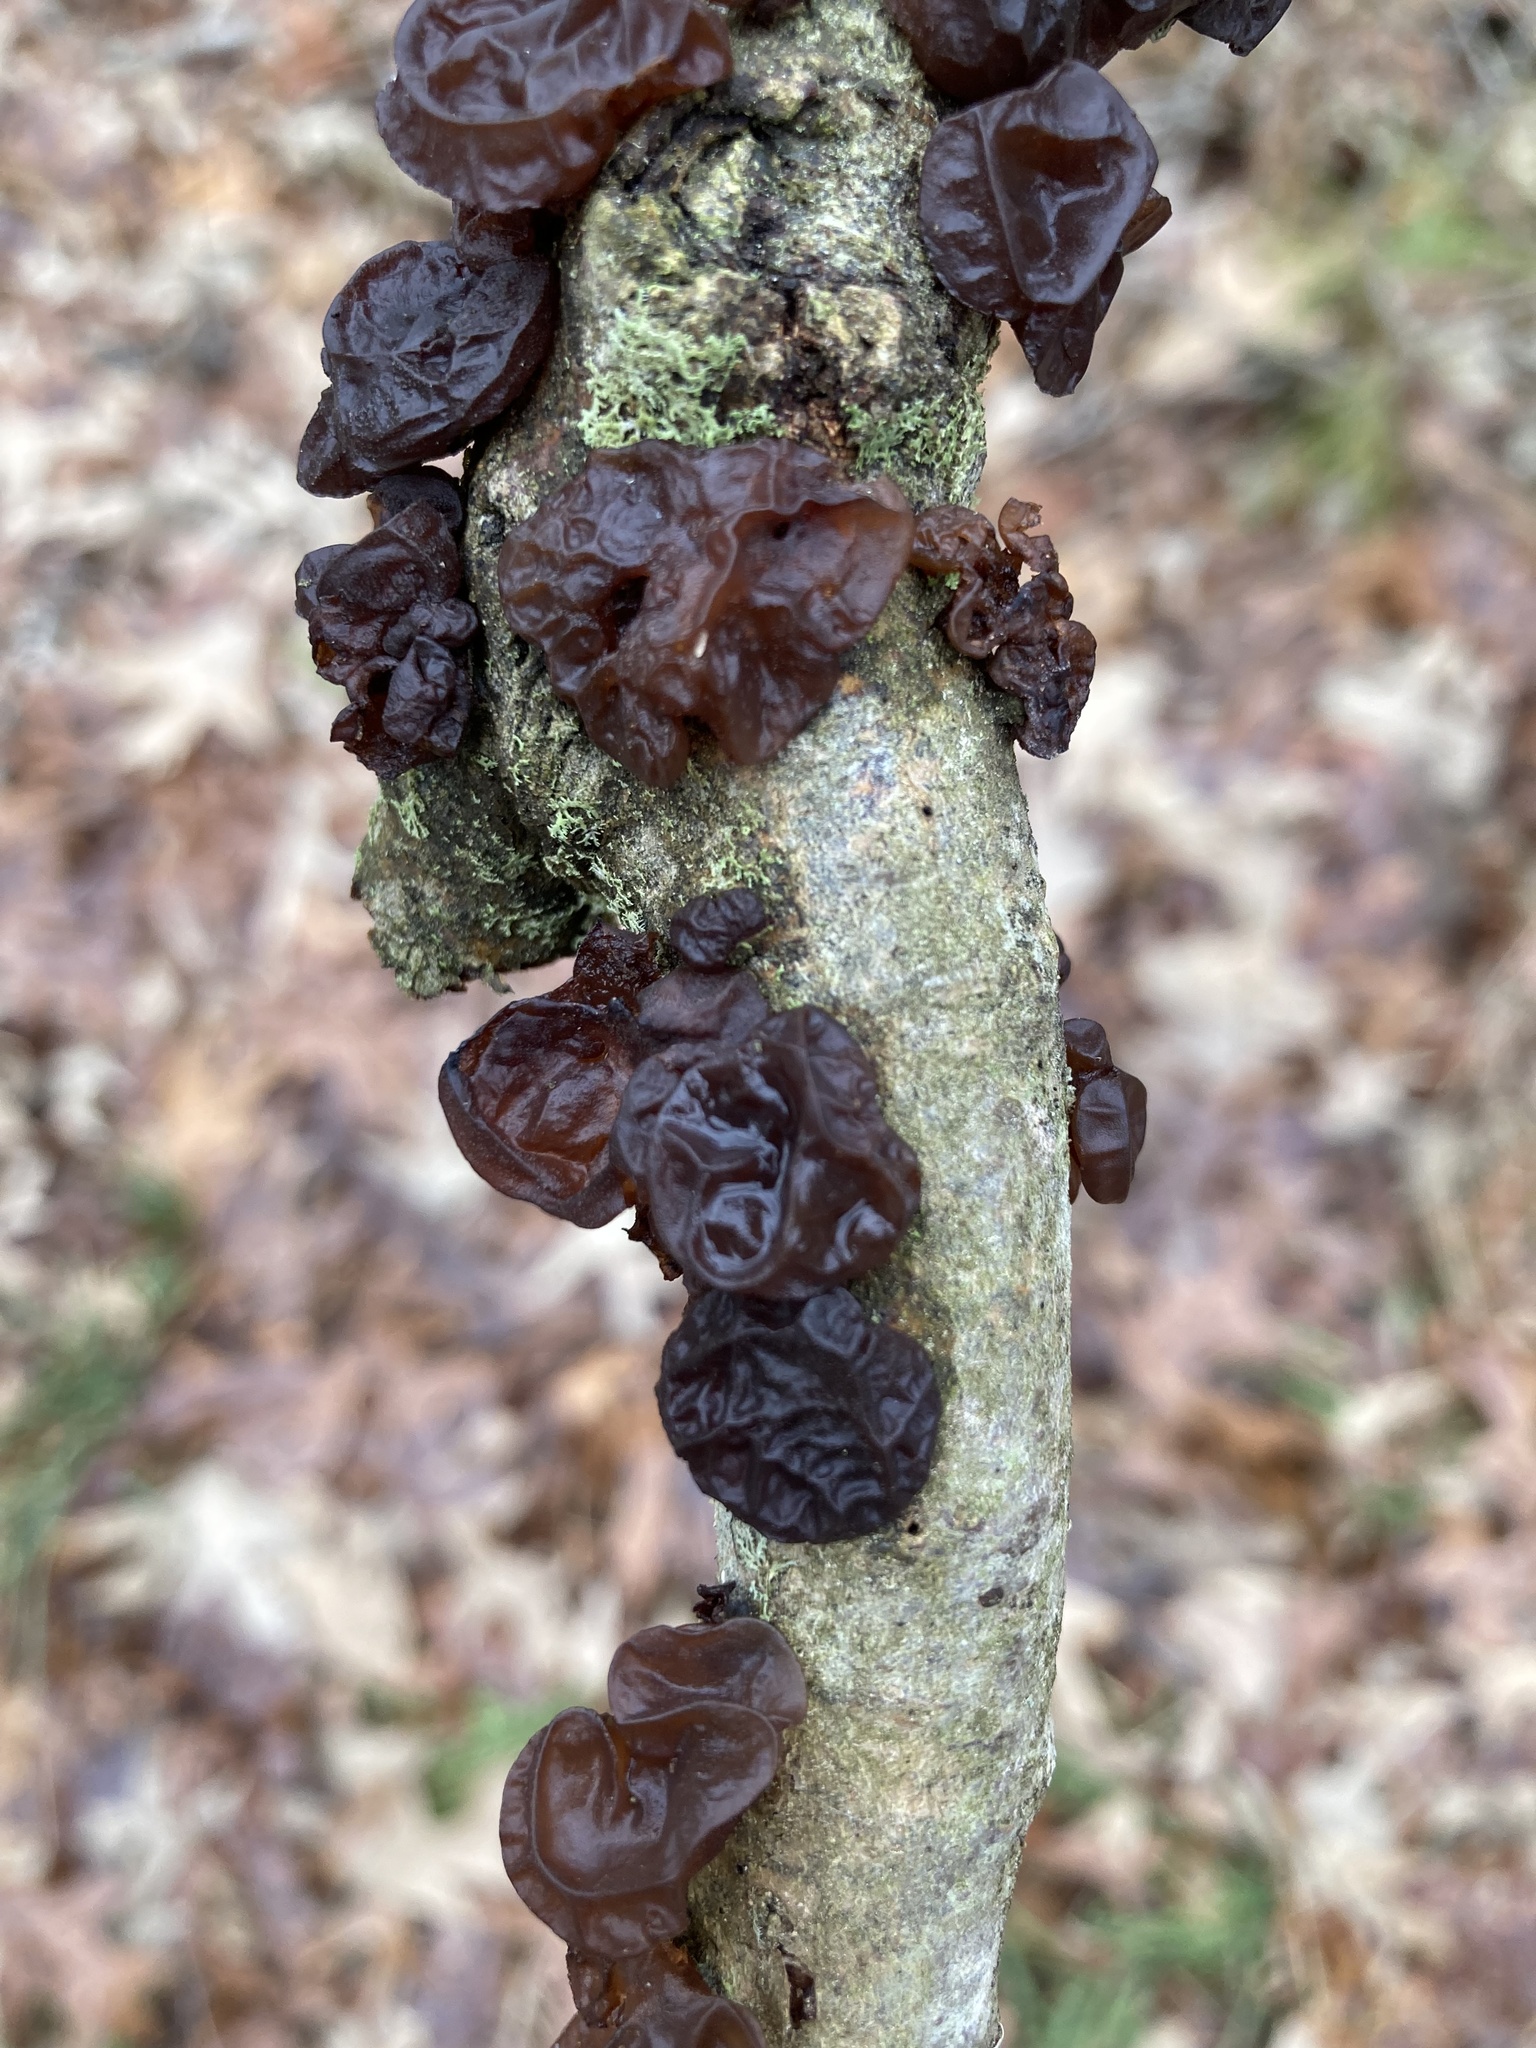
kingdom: Fungi
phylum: Basidiomycota
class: Agaricomycetes
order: Auriculariales
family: Auriculariaceae
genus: Exidia
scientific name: Exidia
